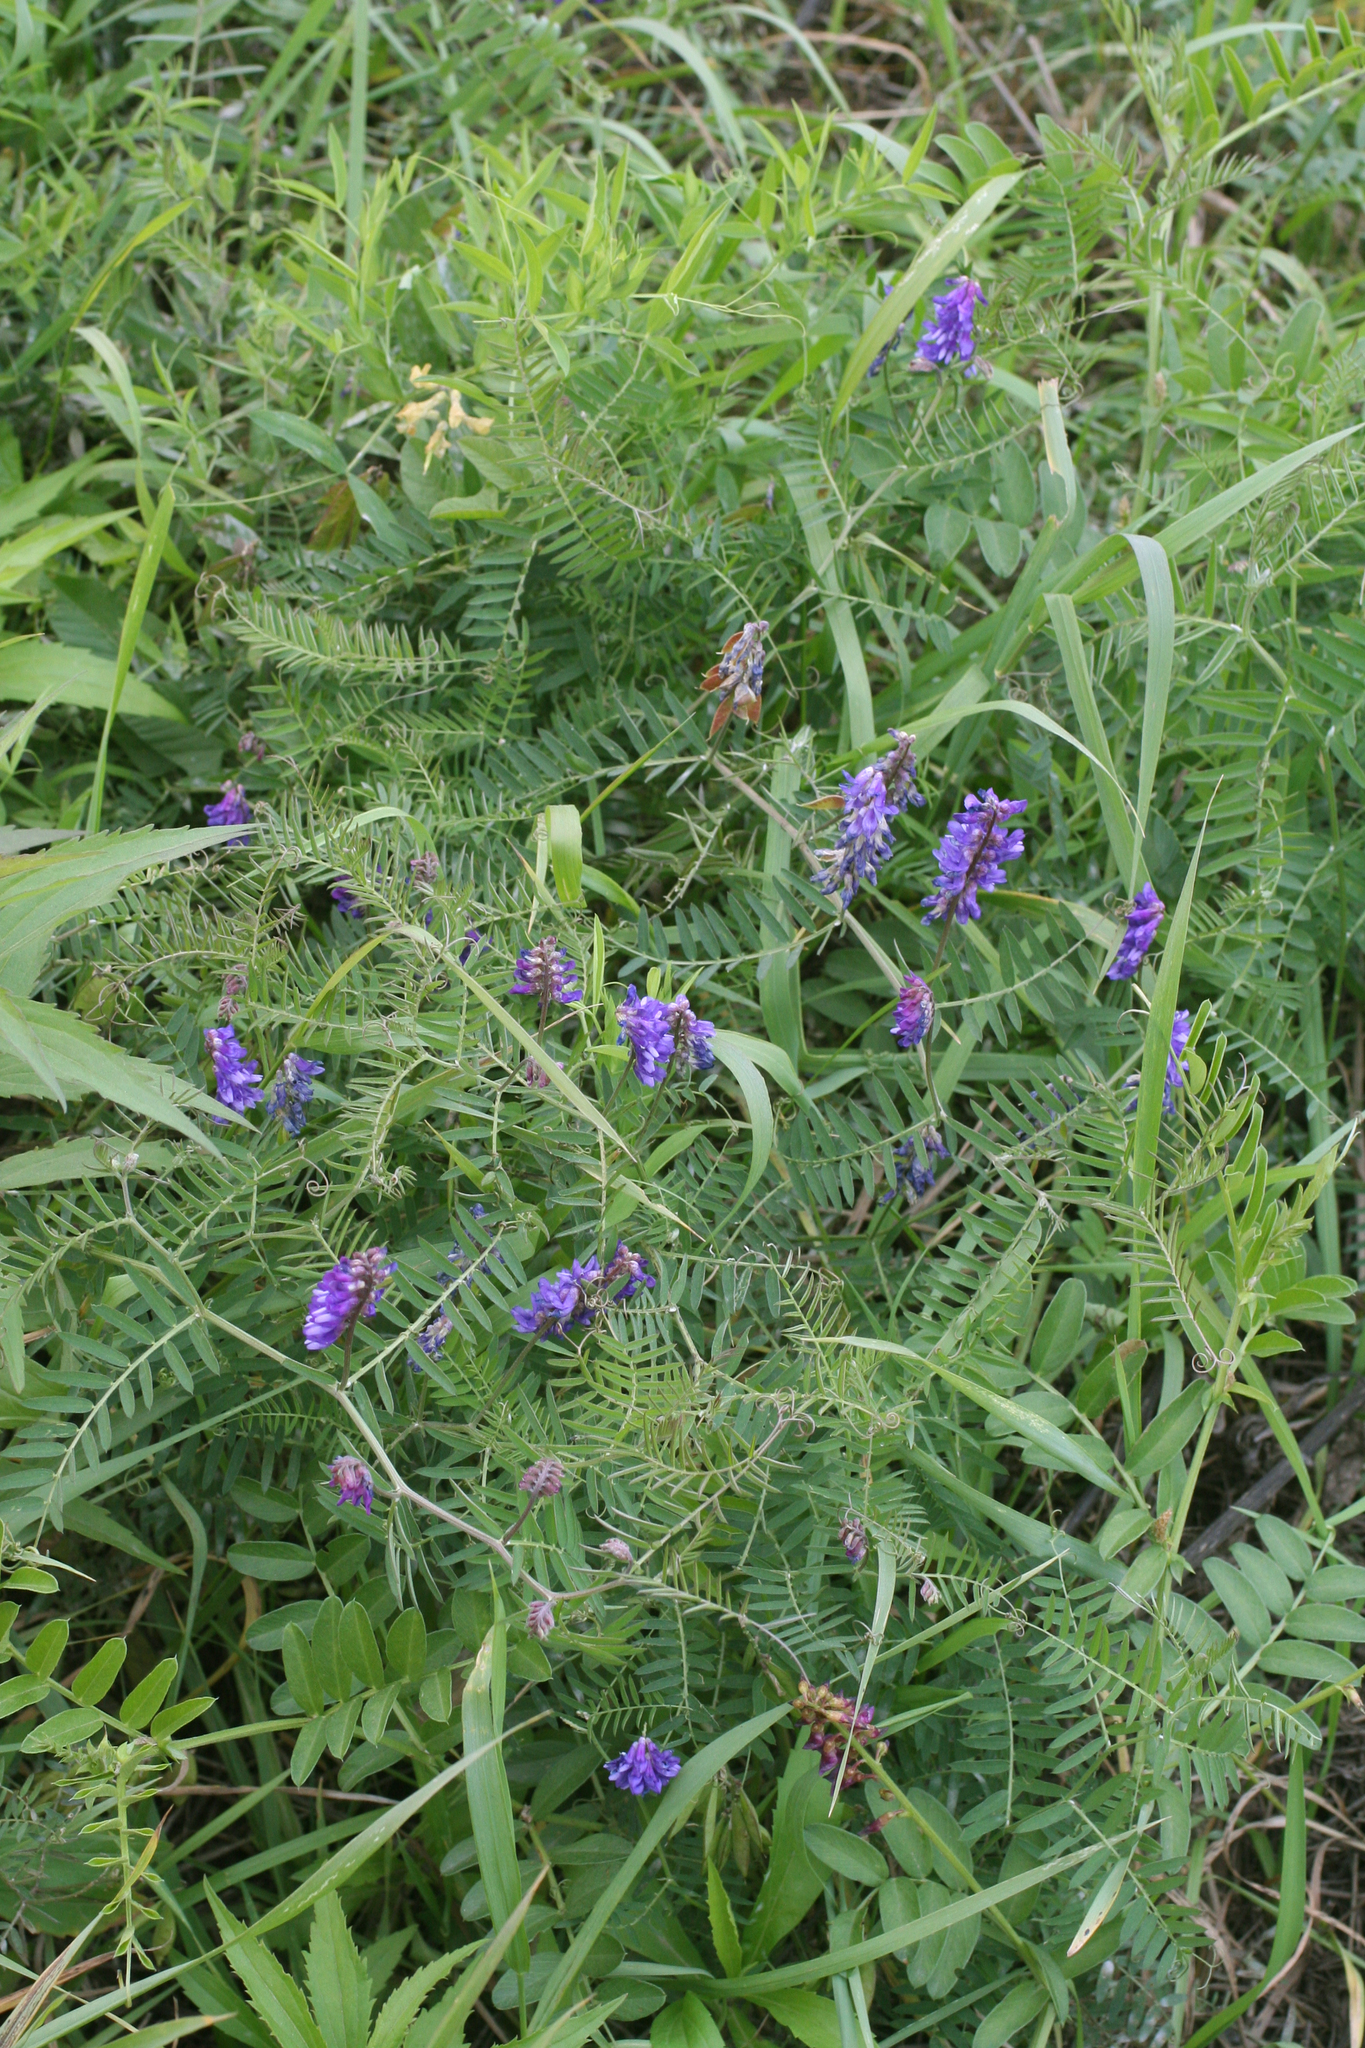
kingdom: Plantae
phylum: Tracheophyta
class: Magnoliopsida
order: Fabales
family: Fabaceae
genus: Vicia
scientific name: Vicia cracca
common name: Bird vetch
